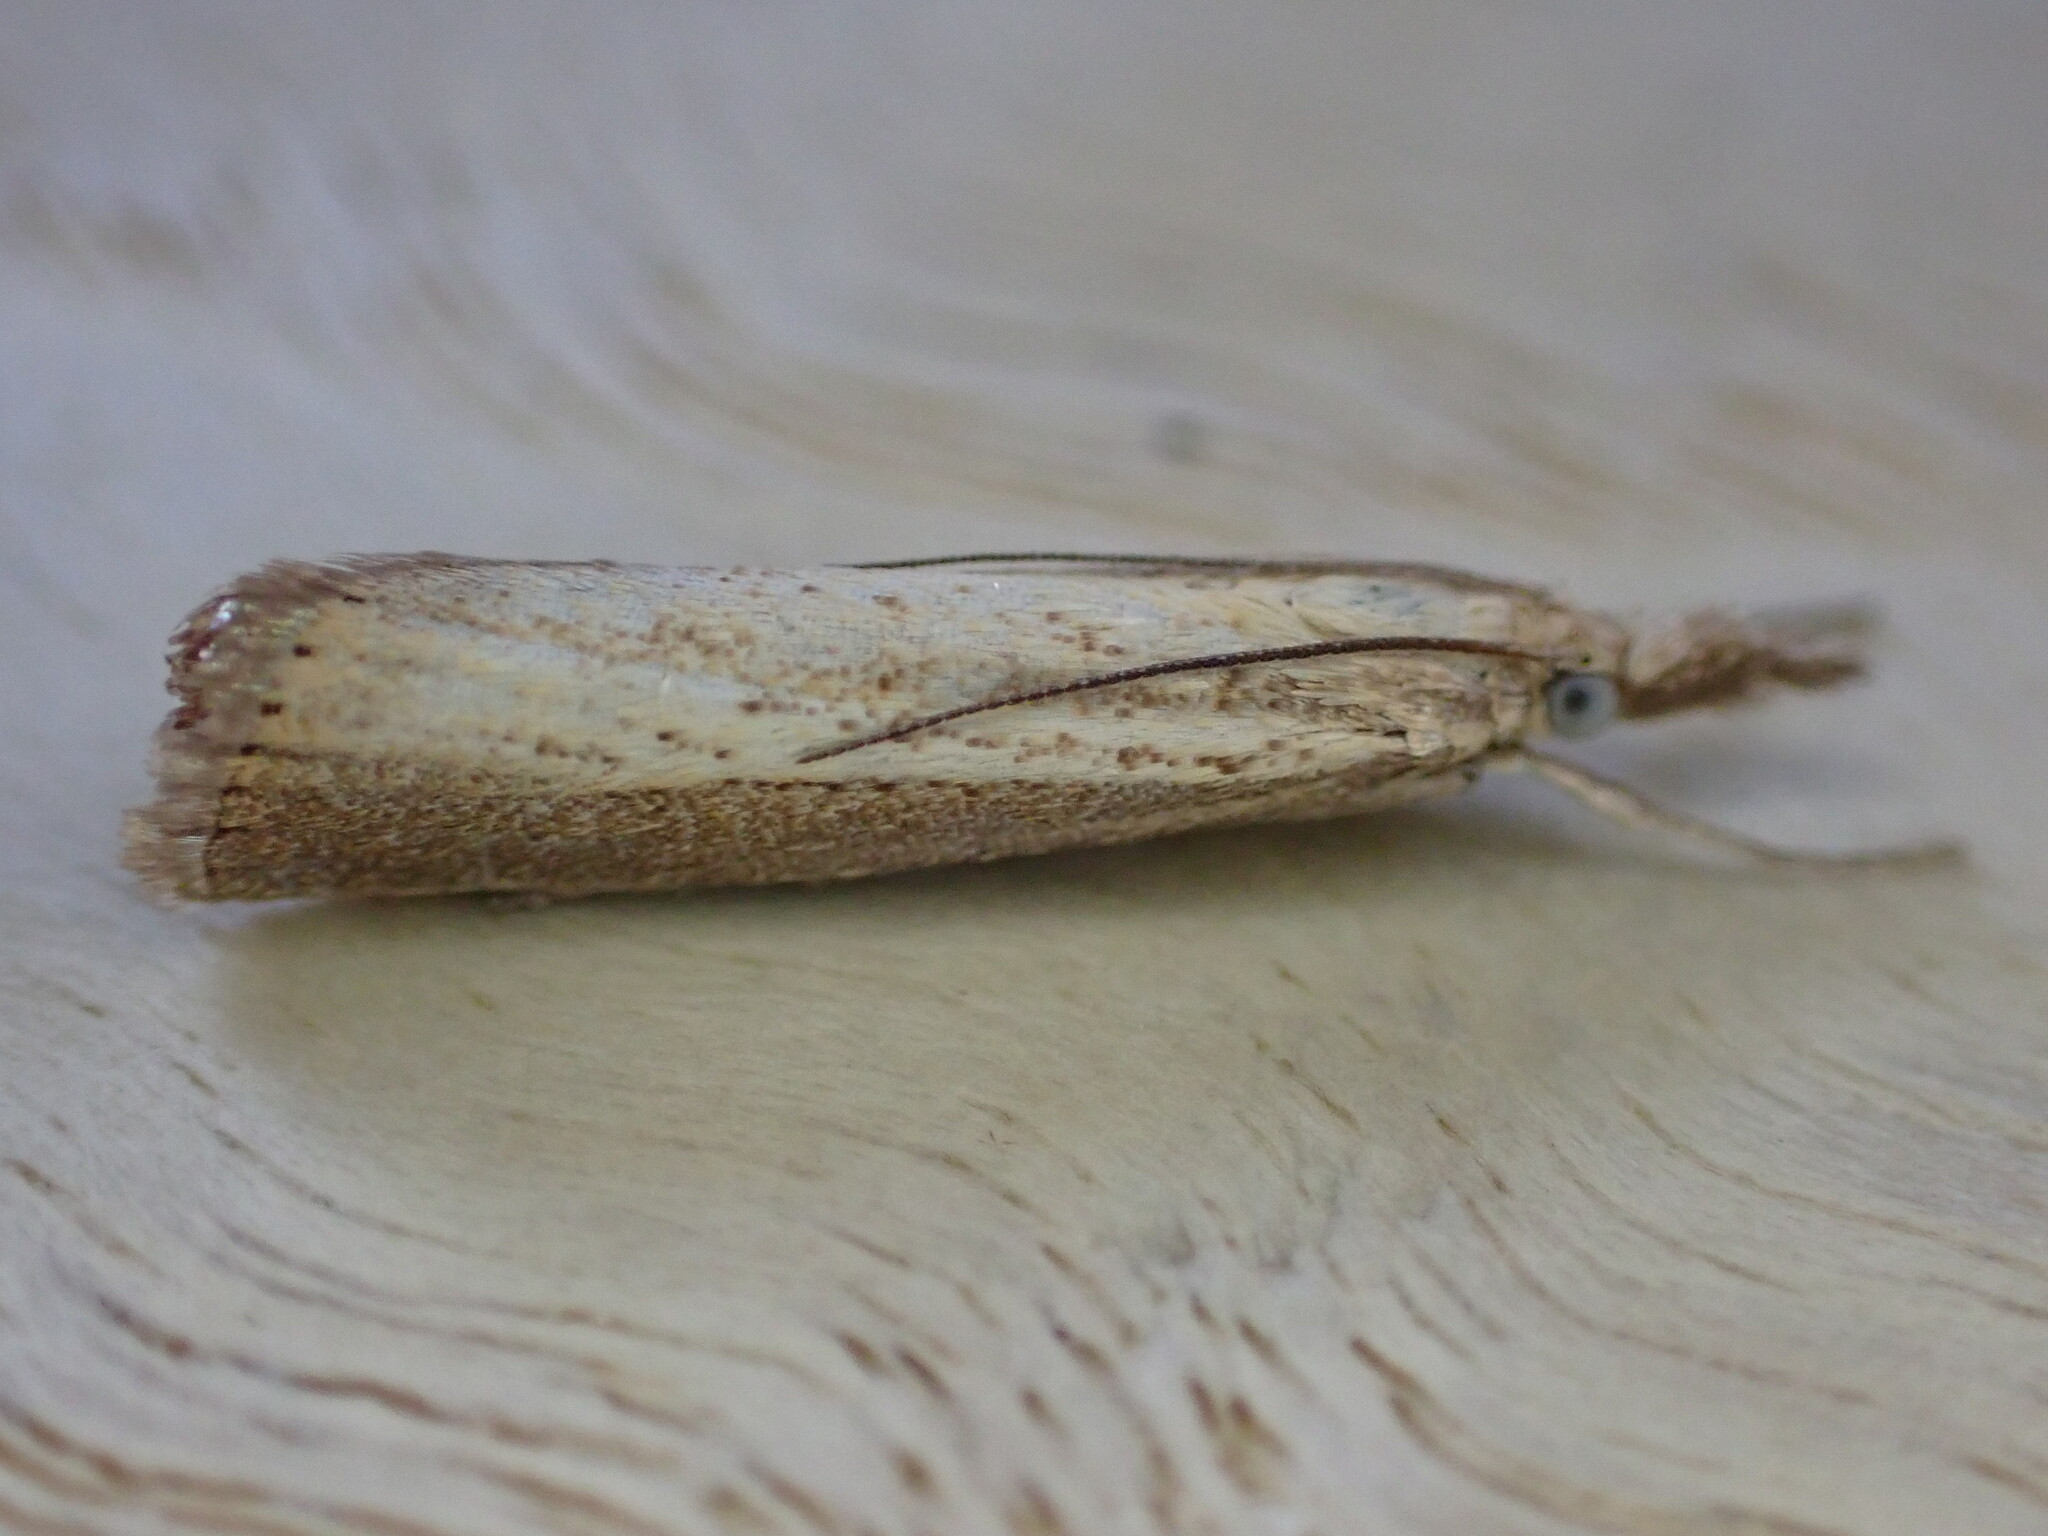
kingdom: Animalia
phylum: Arthropoda
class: Insecta
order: Lepidoptera
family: Crambidae
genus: Agriphila
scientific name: Agriphila straminella
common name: Straw grass-veneer
